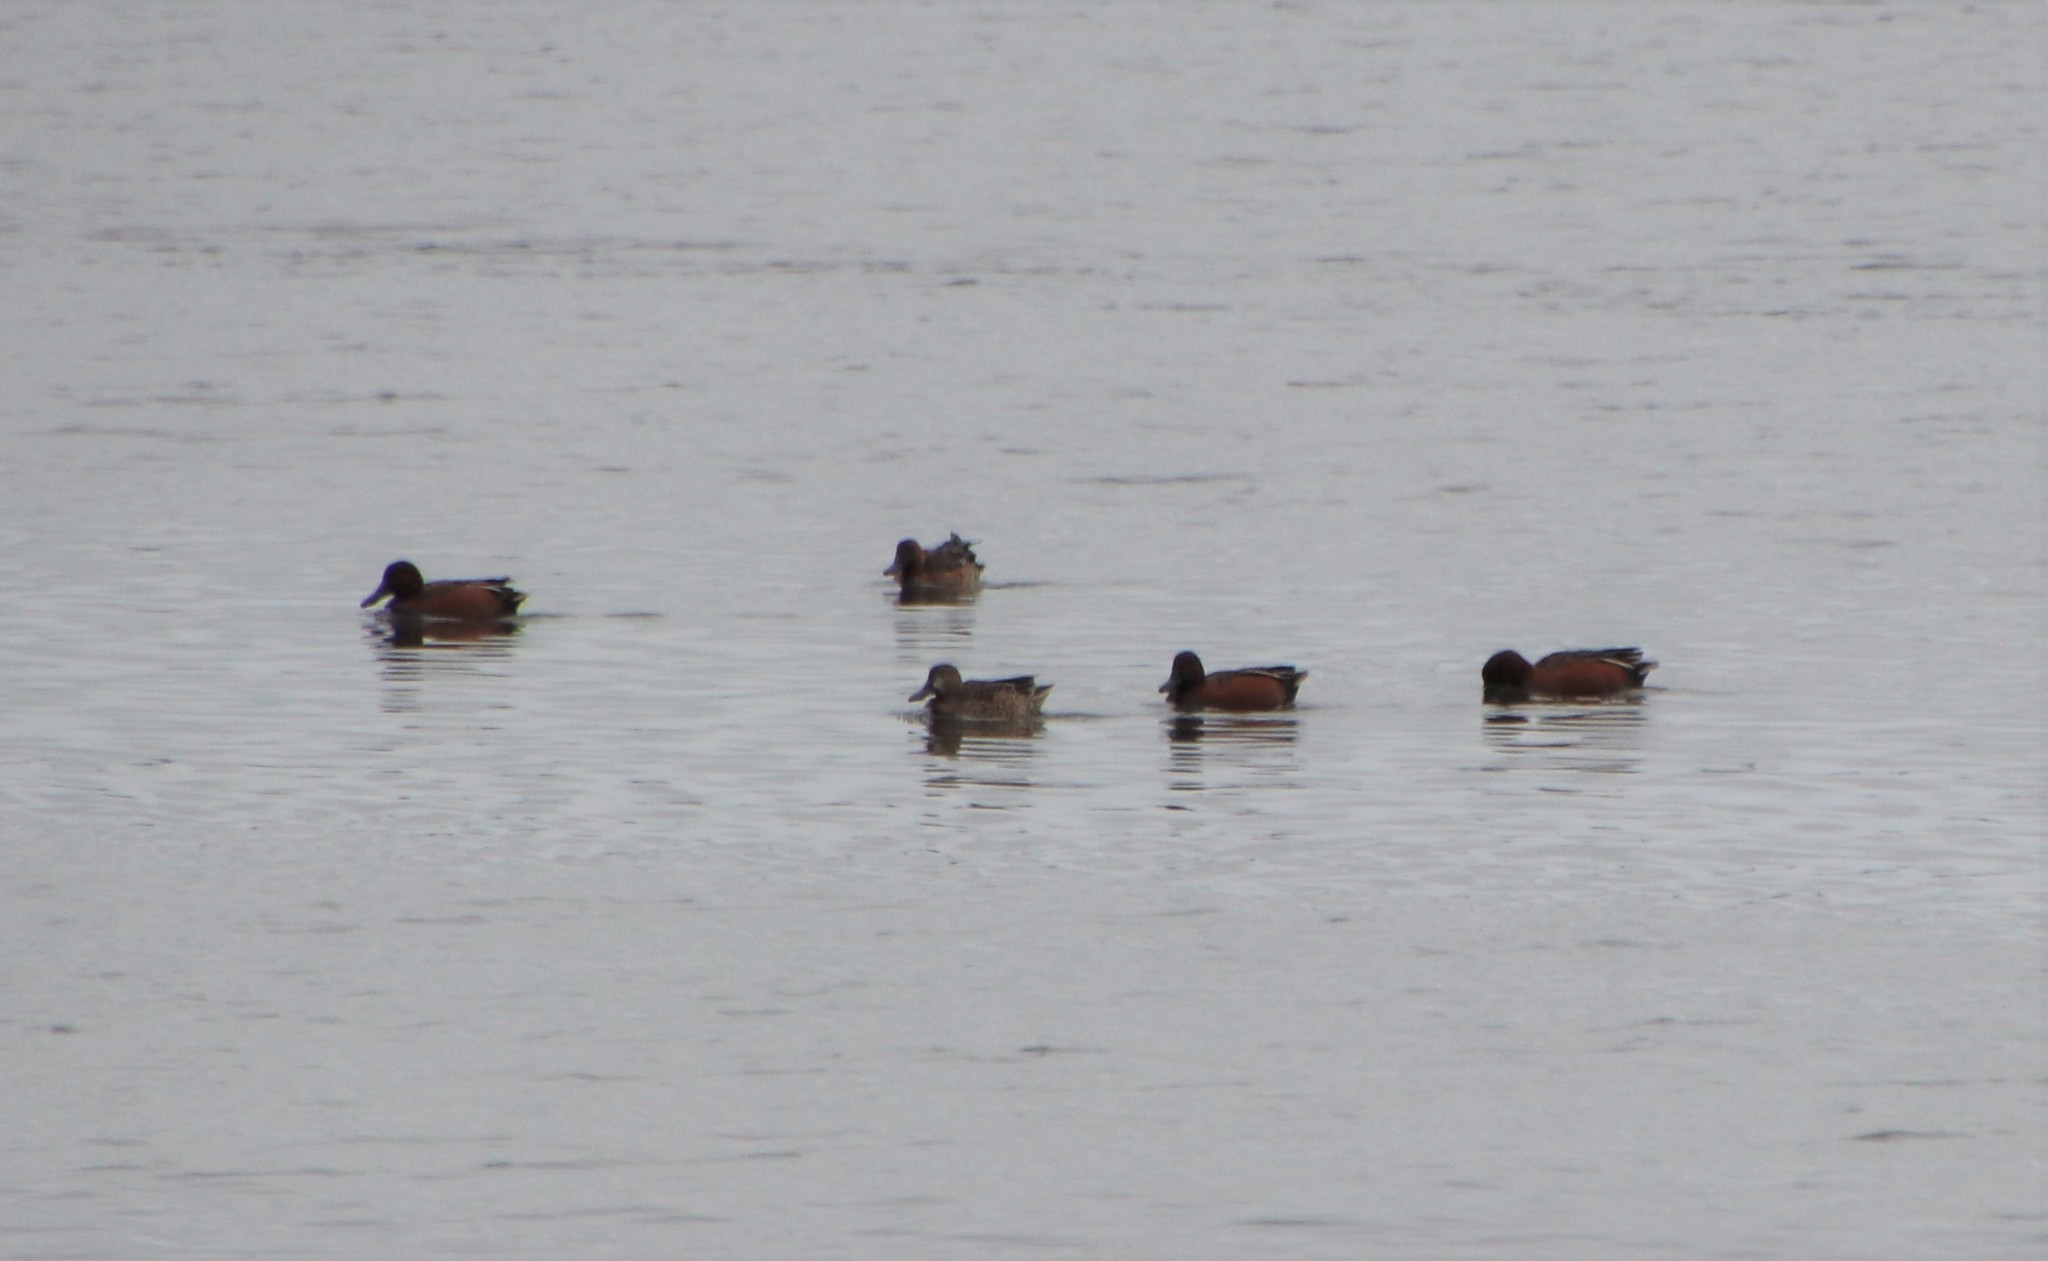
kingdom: Animalia
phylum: Chordata
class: Aves
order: Anseriformes
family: Anatidae
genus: Spatula
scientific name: Spatula cyanoptera
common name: Cinnamon teal
